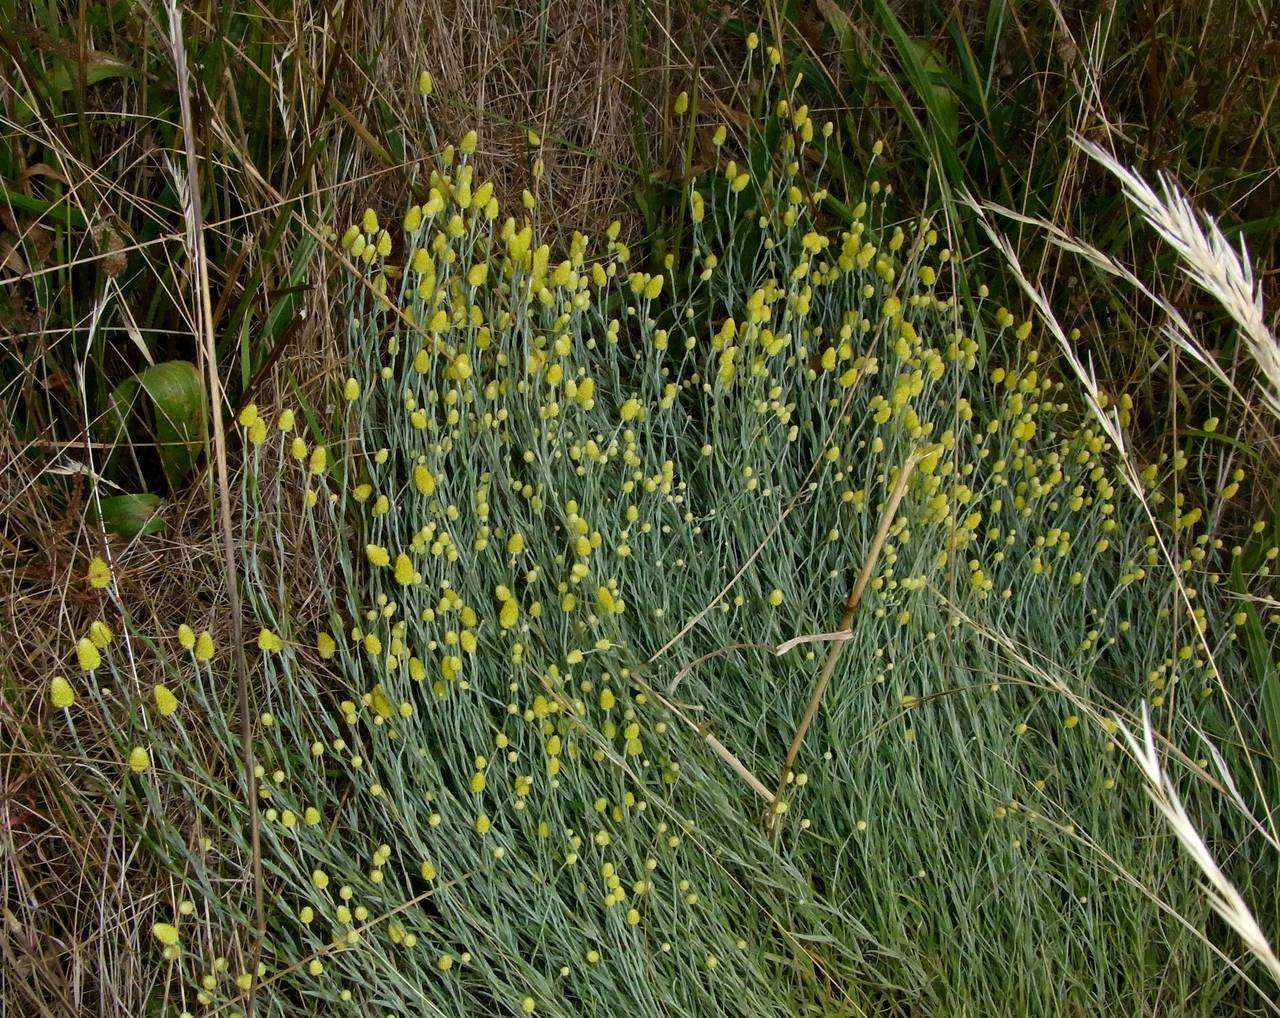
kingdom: Plantae
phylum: Tracheophyta
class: Magnoliopsida
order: Asterales
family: Asteraceae
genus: Calocephalus
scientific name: Calocephalus citreus
